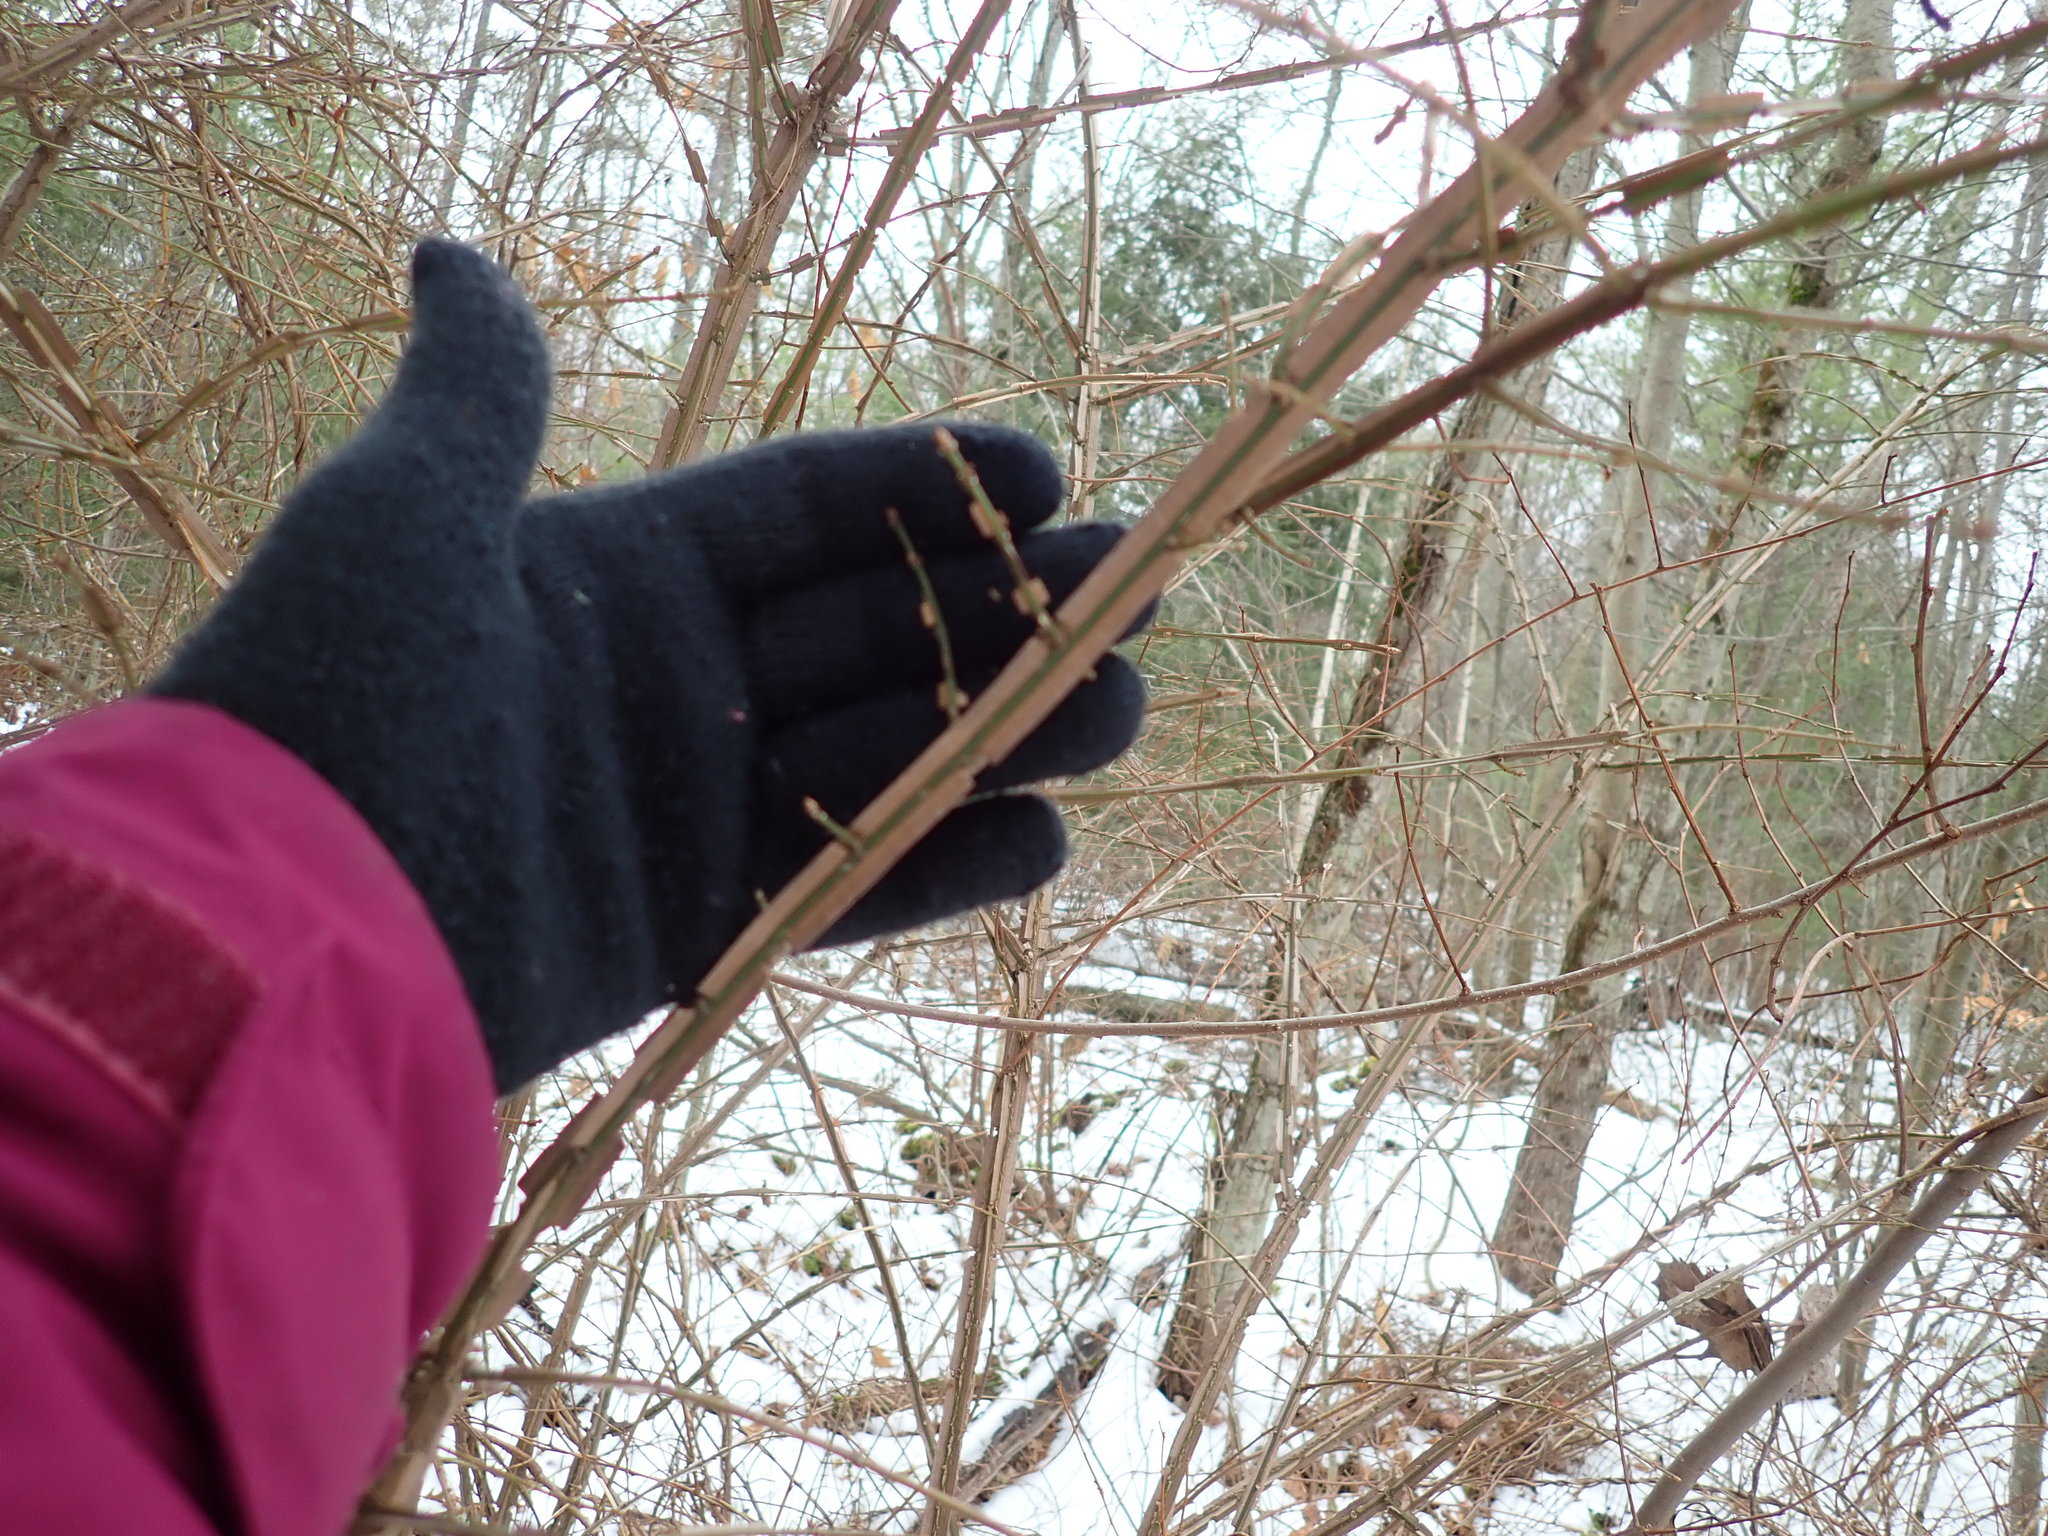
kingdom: Plantae
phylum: Tracheophyta
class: Magnoliopsida
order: Celastrales
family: Celastraceae
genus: Euonymus
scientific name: Euonymus alatus
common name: Winged euonymus
